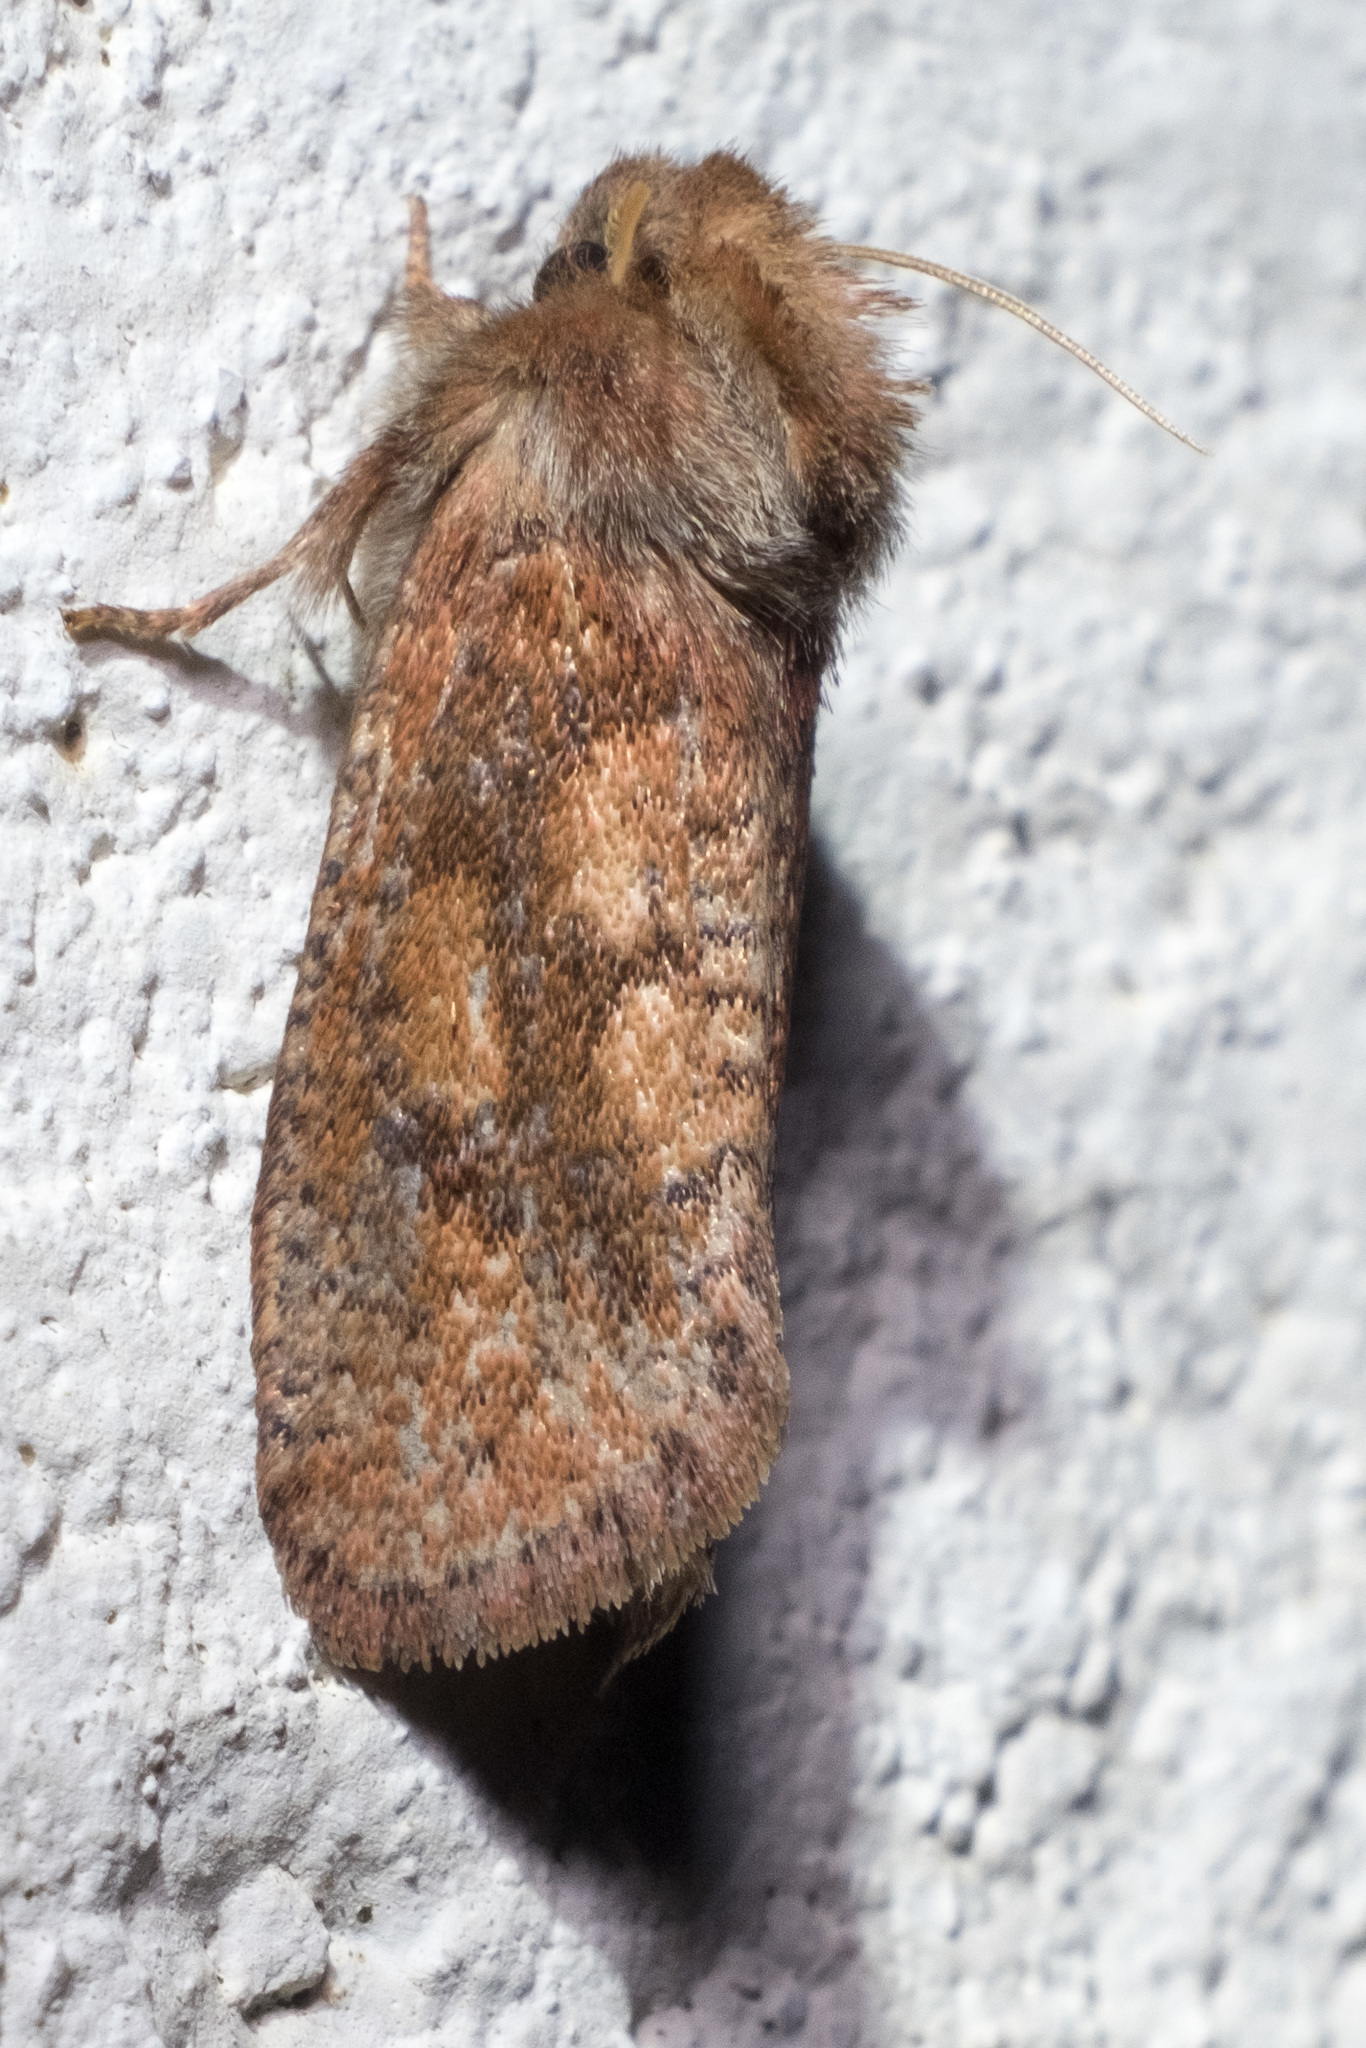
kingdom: Animalia
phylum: Arthropoda
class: Insecta
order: Lepidoptera
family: Tineidae
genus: Acrolophus
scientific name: Acrolophus plumifrontella
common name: Eastern grass tubeworm moth
